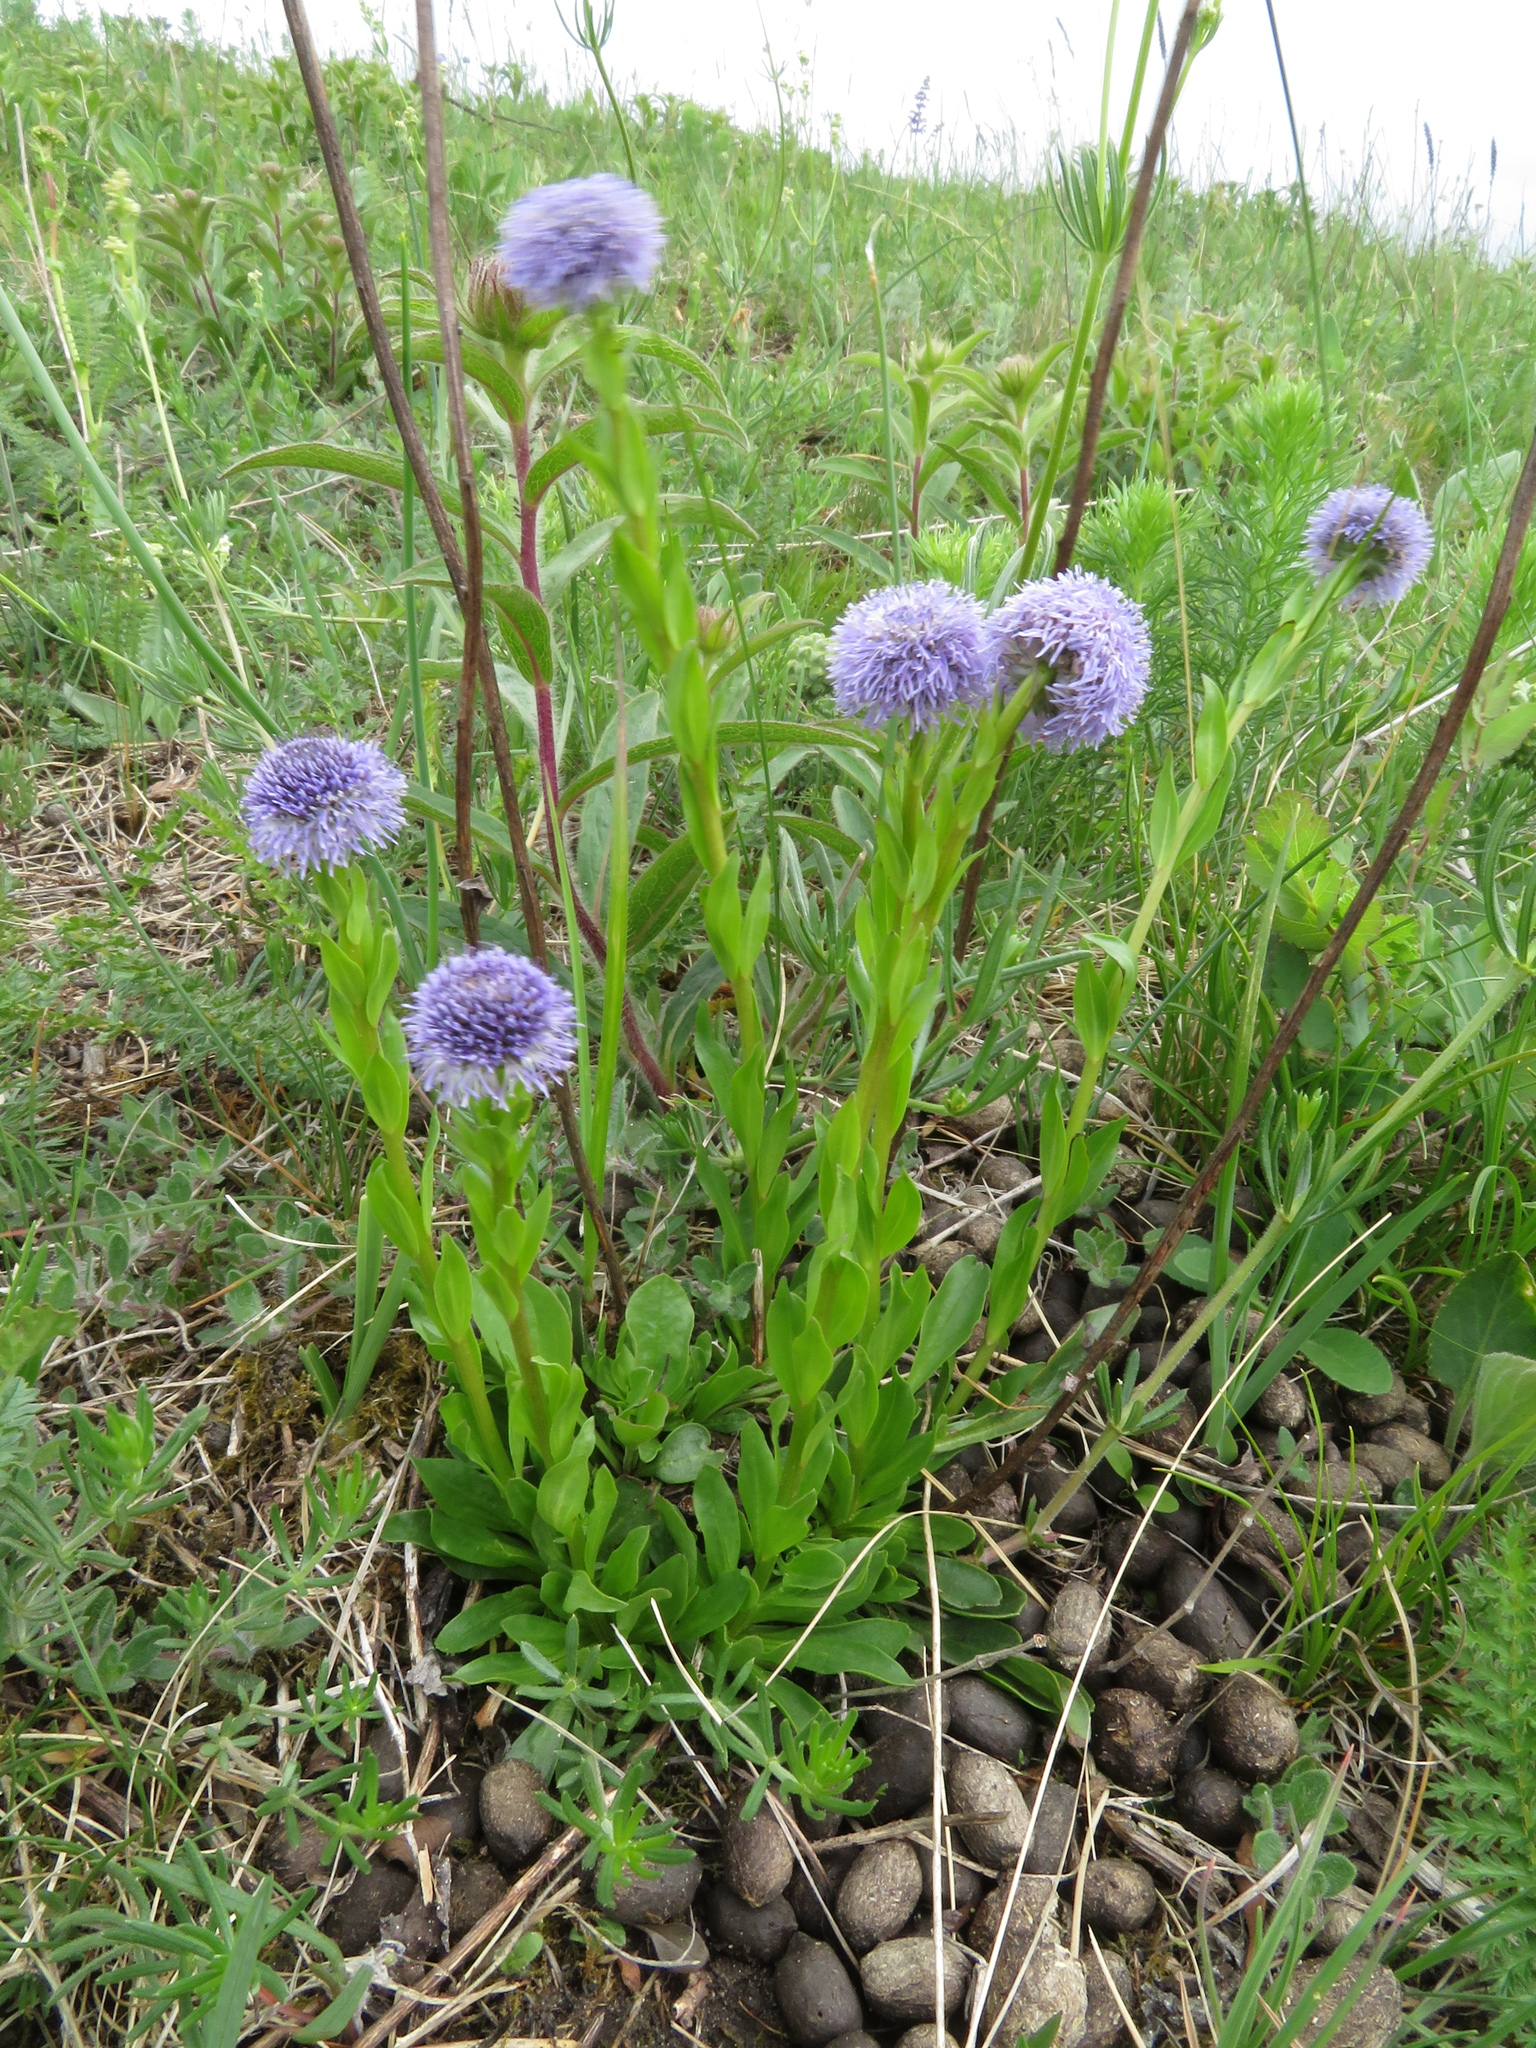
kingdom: Plantae
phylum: Tracheophyta
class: Magnoliopsida
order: Lamiales
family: Plantaginaceae
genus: Globularia
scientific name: Globularia bisnagarica
